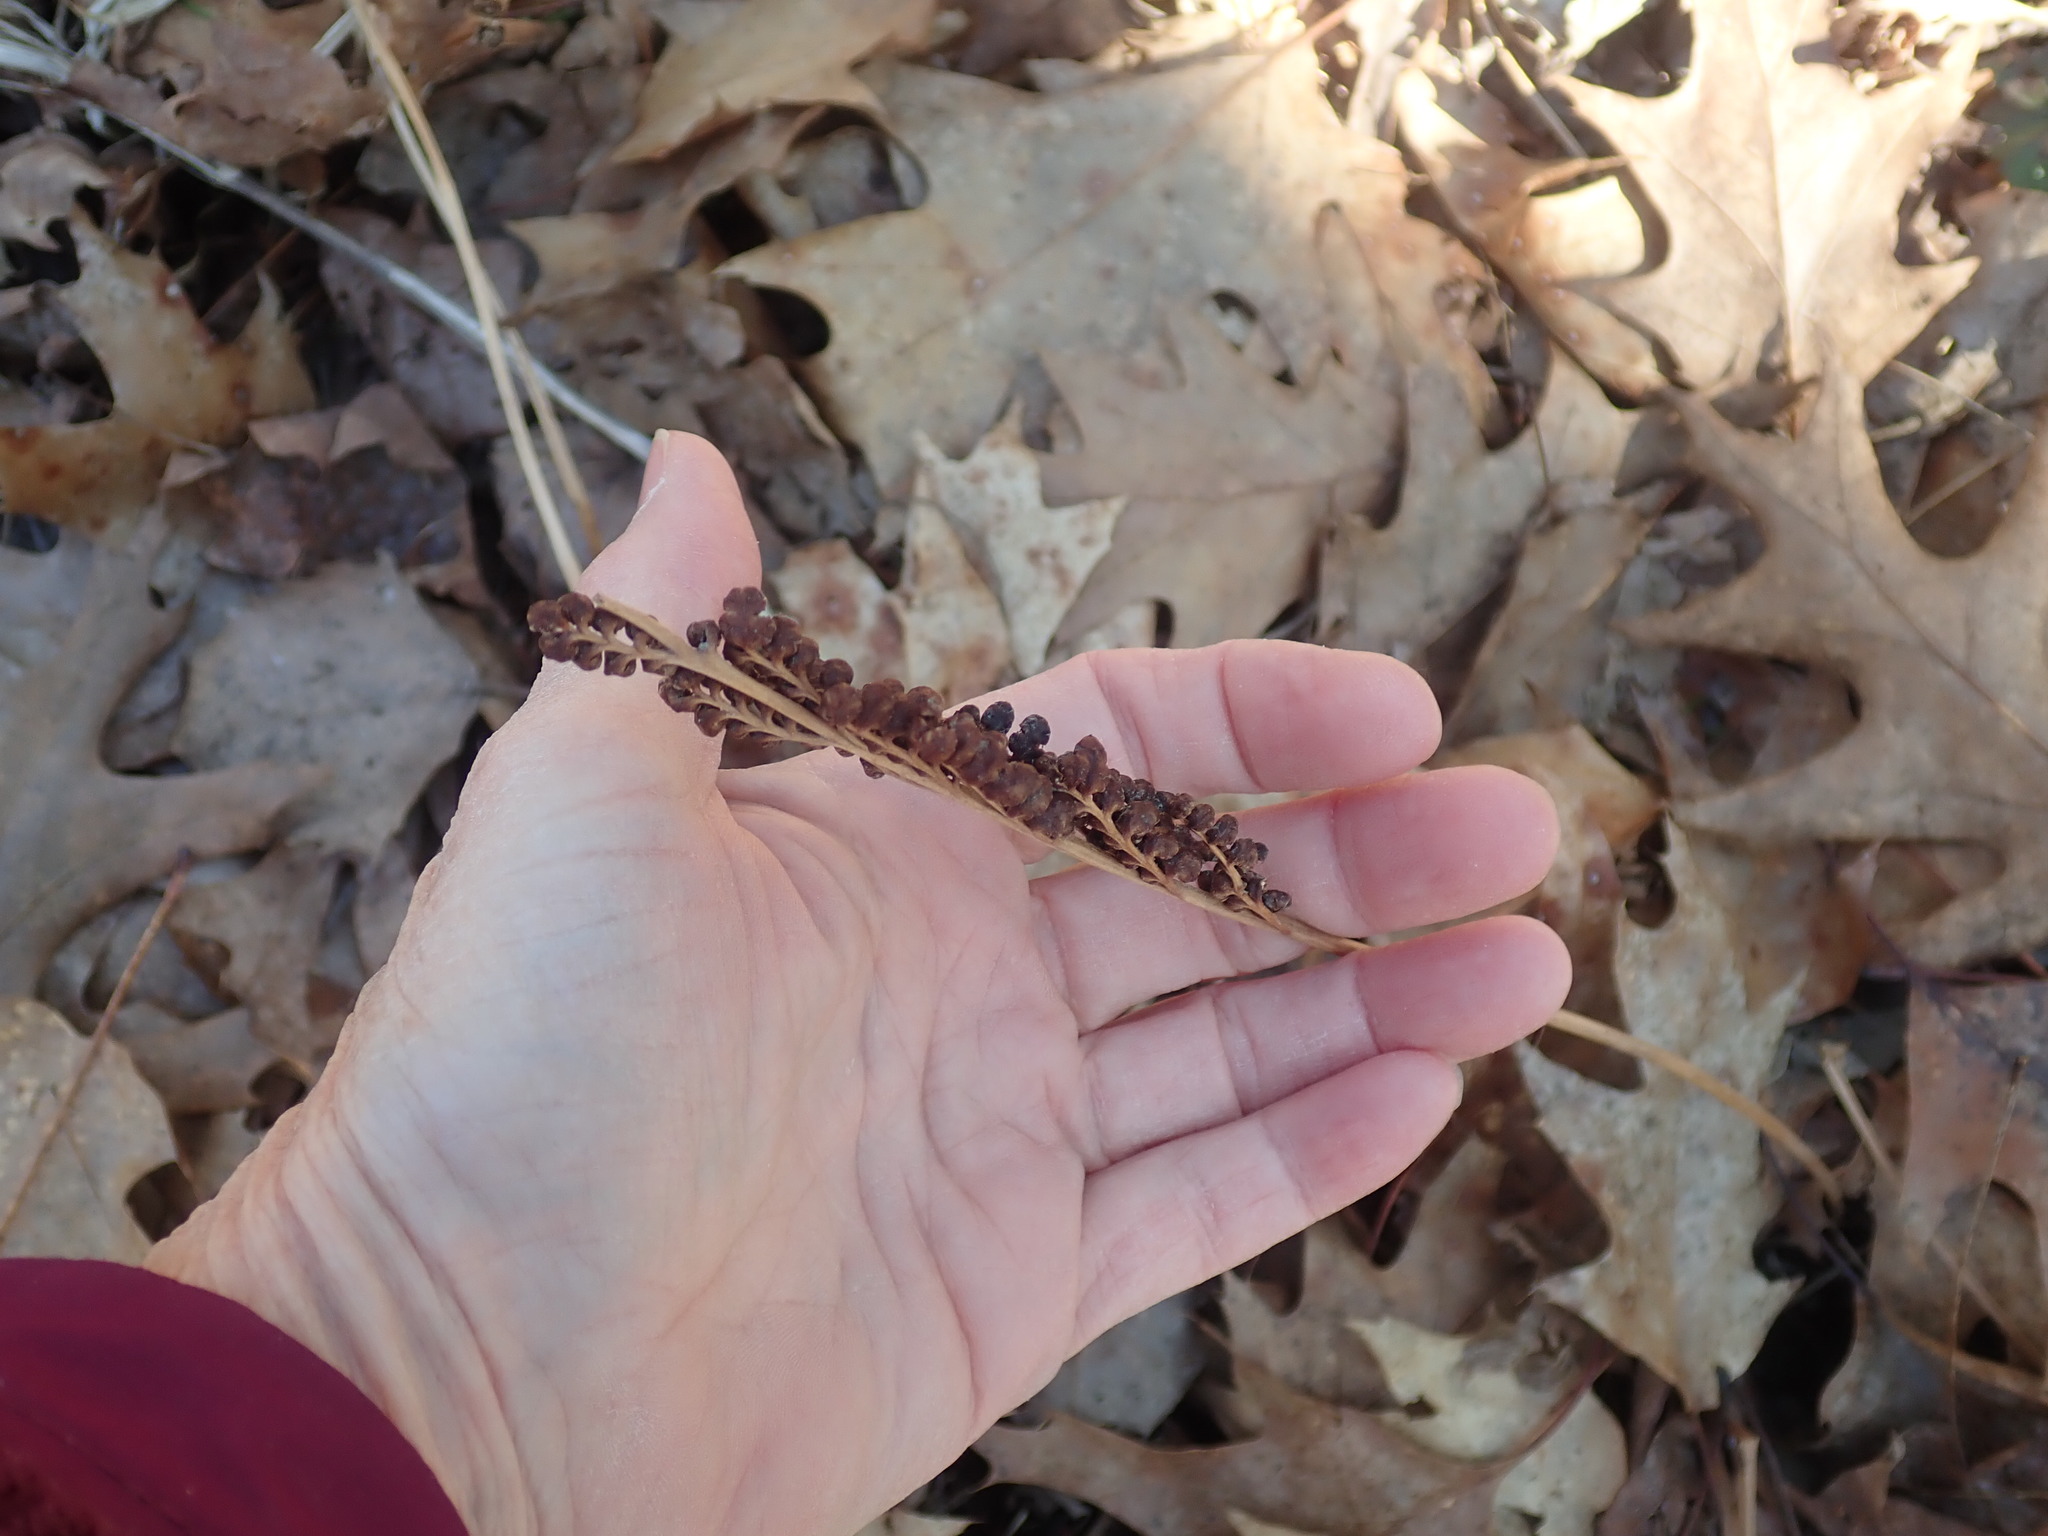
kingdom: Plantae
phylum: Tracheophyta
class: Polypodiopsida
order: Polypodiales
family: Onocleaceae
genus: Onoclea
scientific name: Onoclea sensibilis
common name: Sensitive fern
